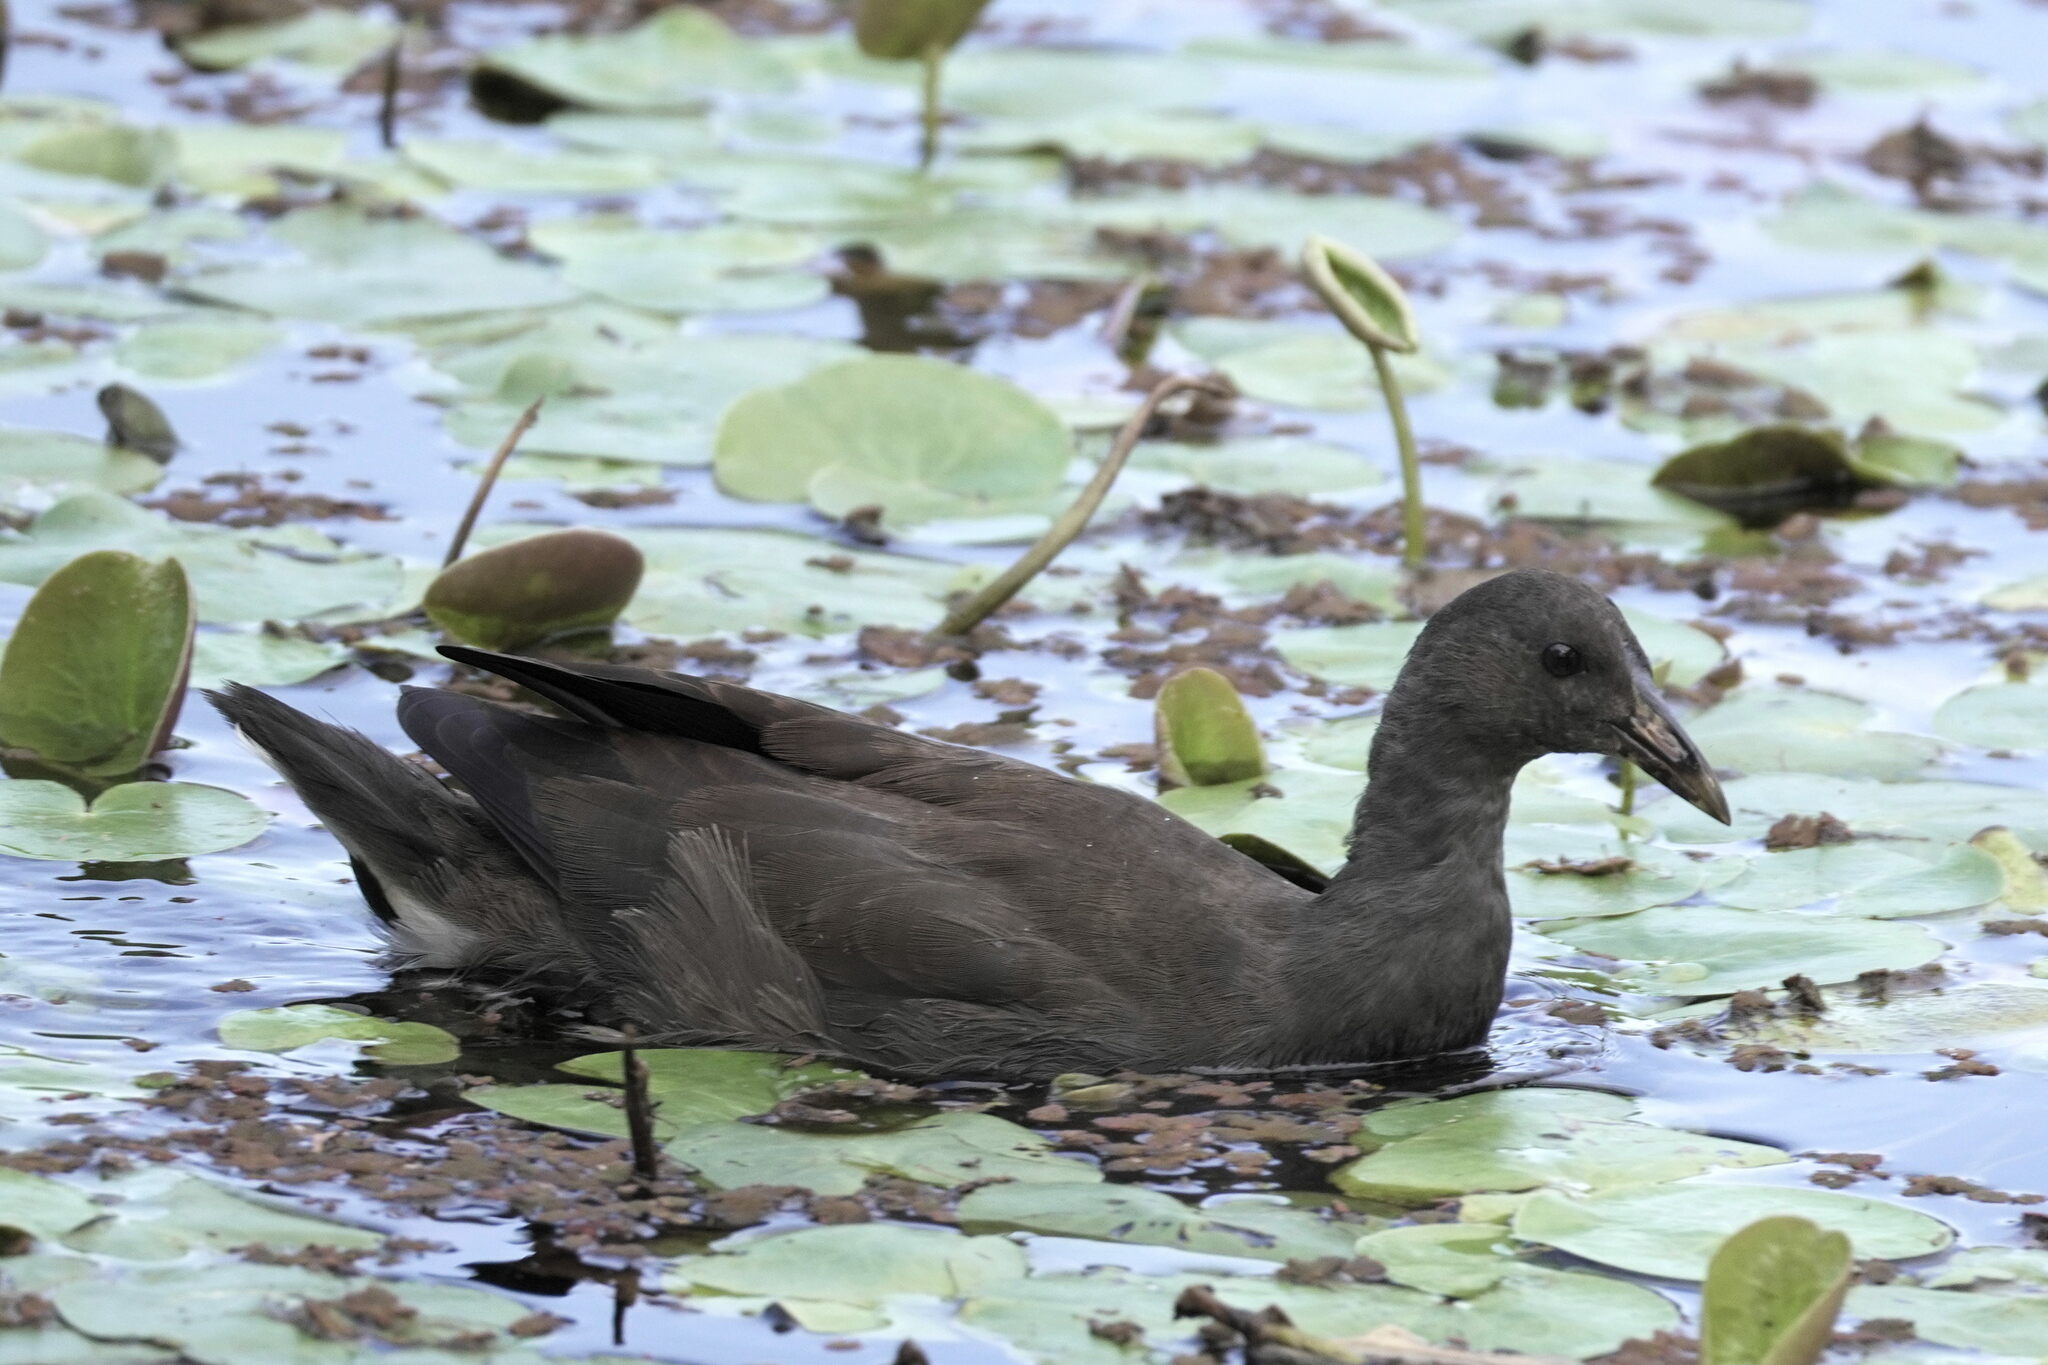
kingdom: Animalia
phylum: Chordata
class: Aves
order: Gruiformes
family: Rallidae
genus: Gallinula
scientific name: Gallinula tenebrosa
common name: Dusky moorhen
